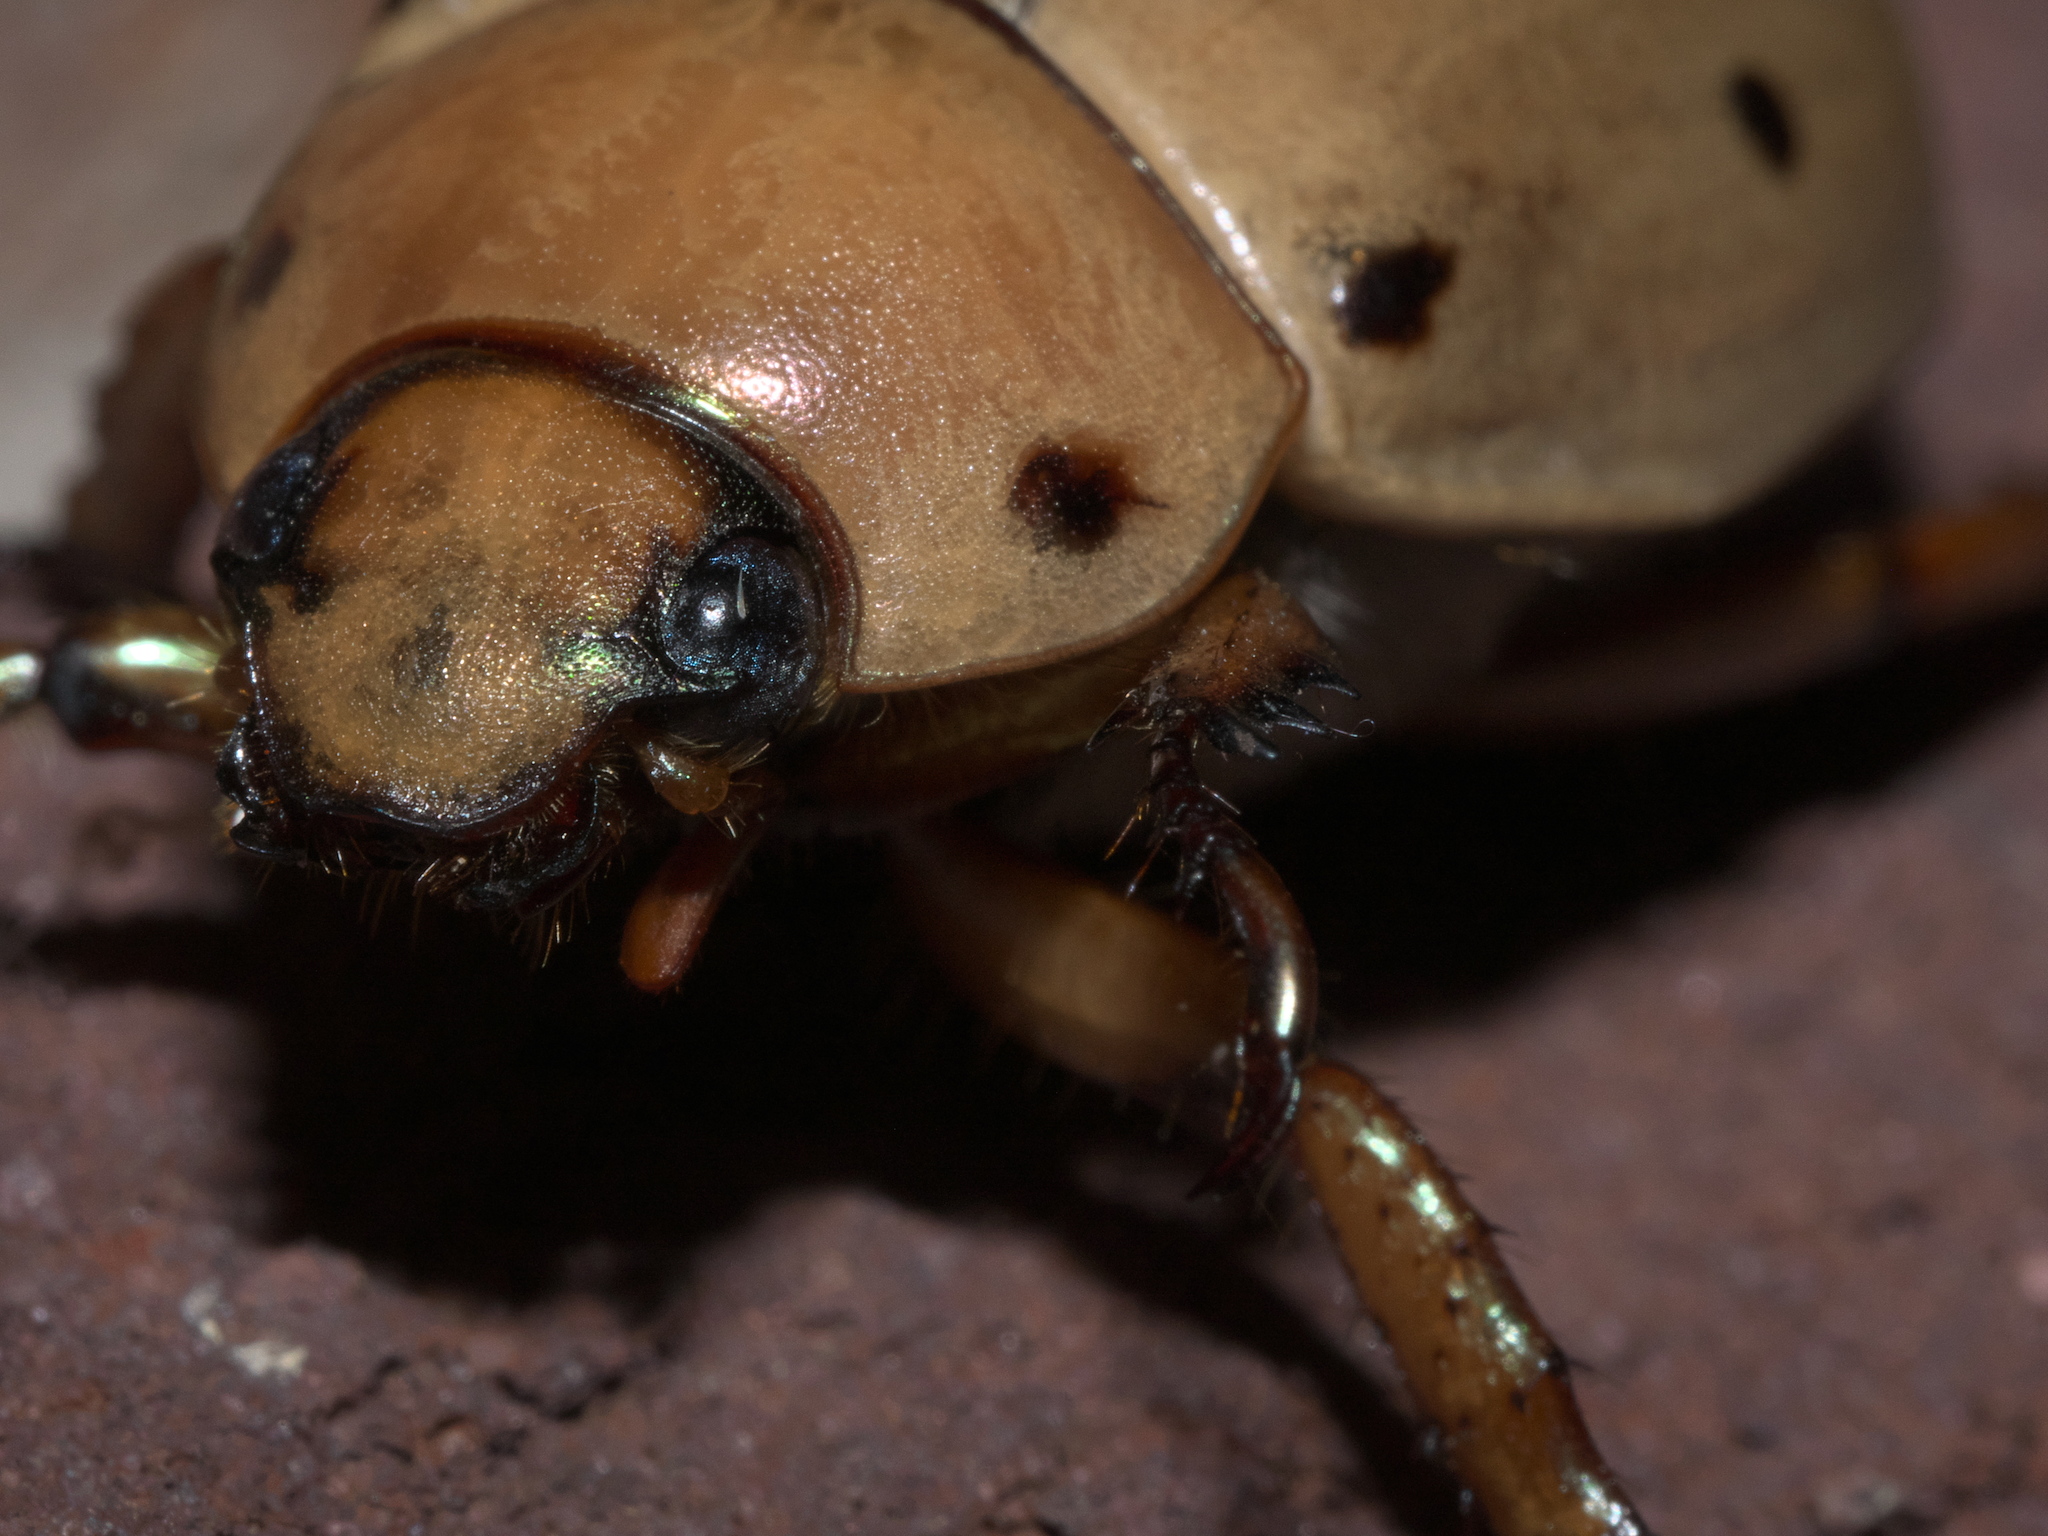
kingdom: Animalia
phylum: Arthropoda
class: Insecta
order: Coleoptera
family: Scarabaeidae
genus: Pelidnota
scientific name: Pelidnota punctata
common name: Grapevine beetle
